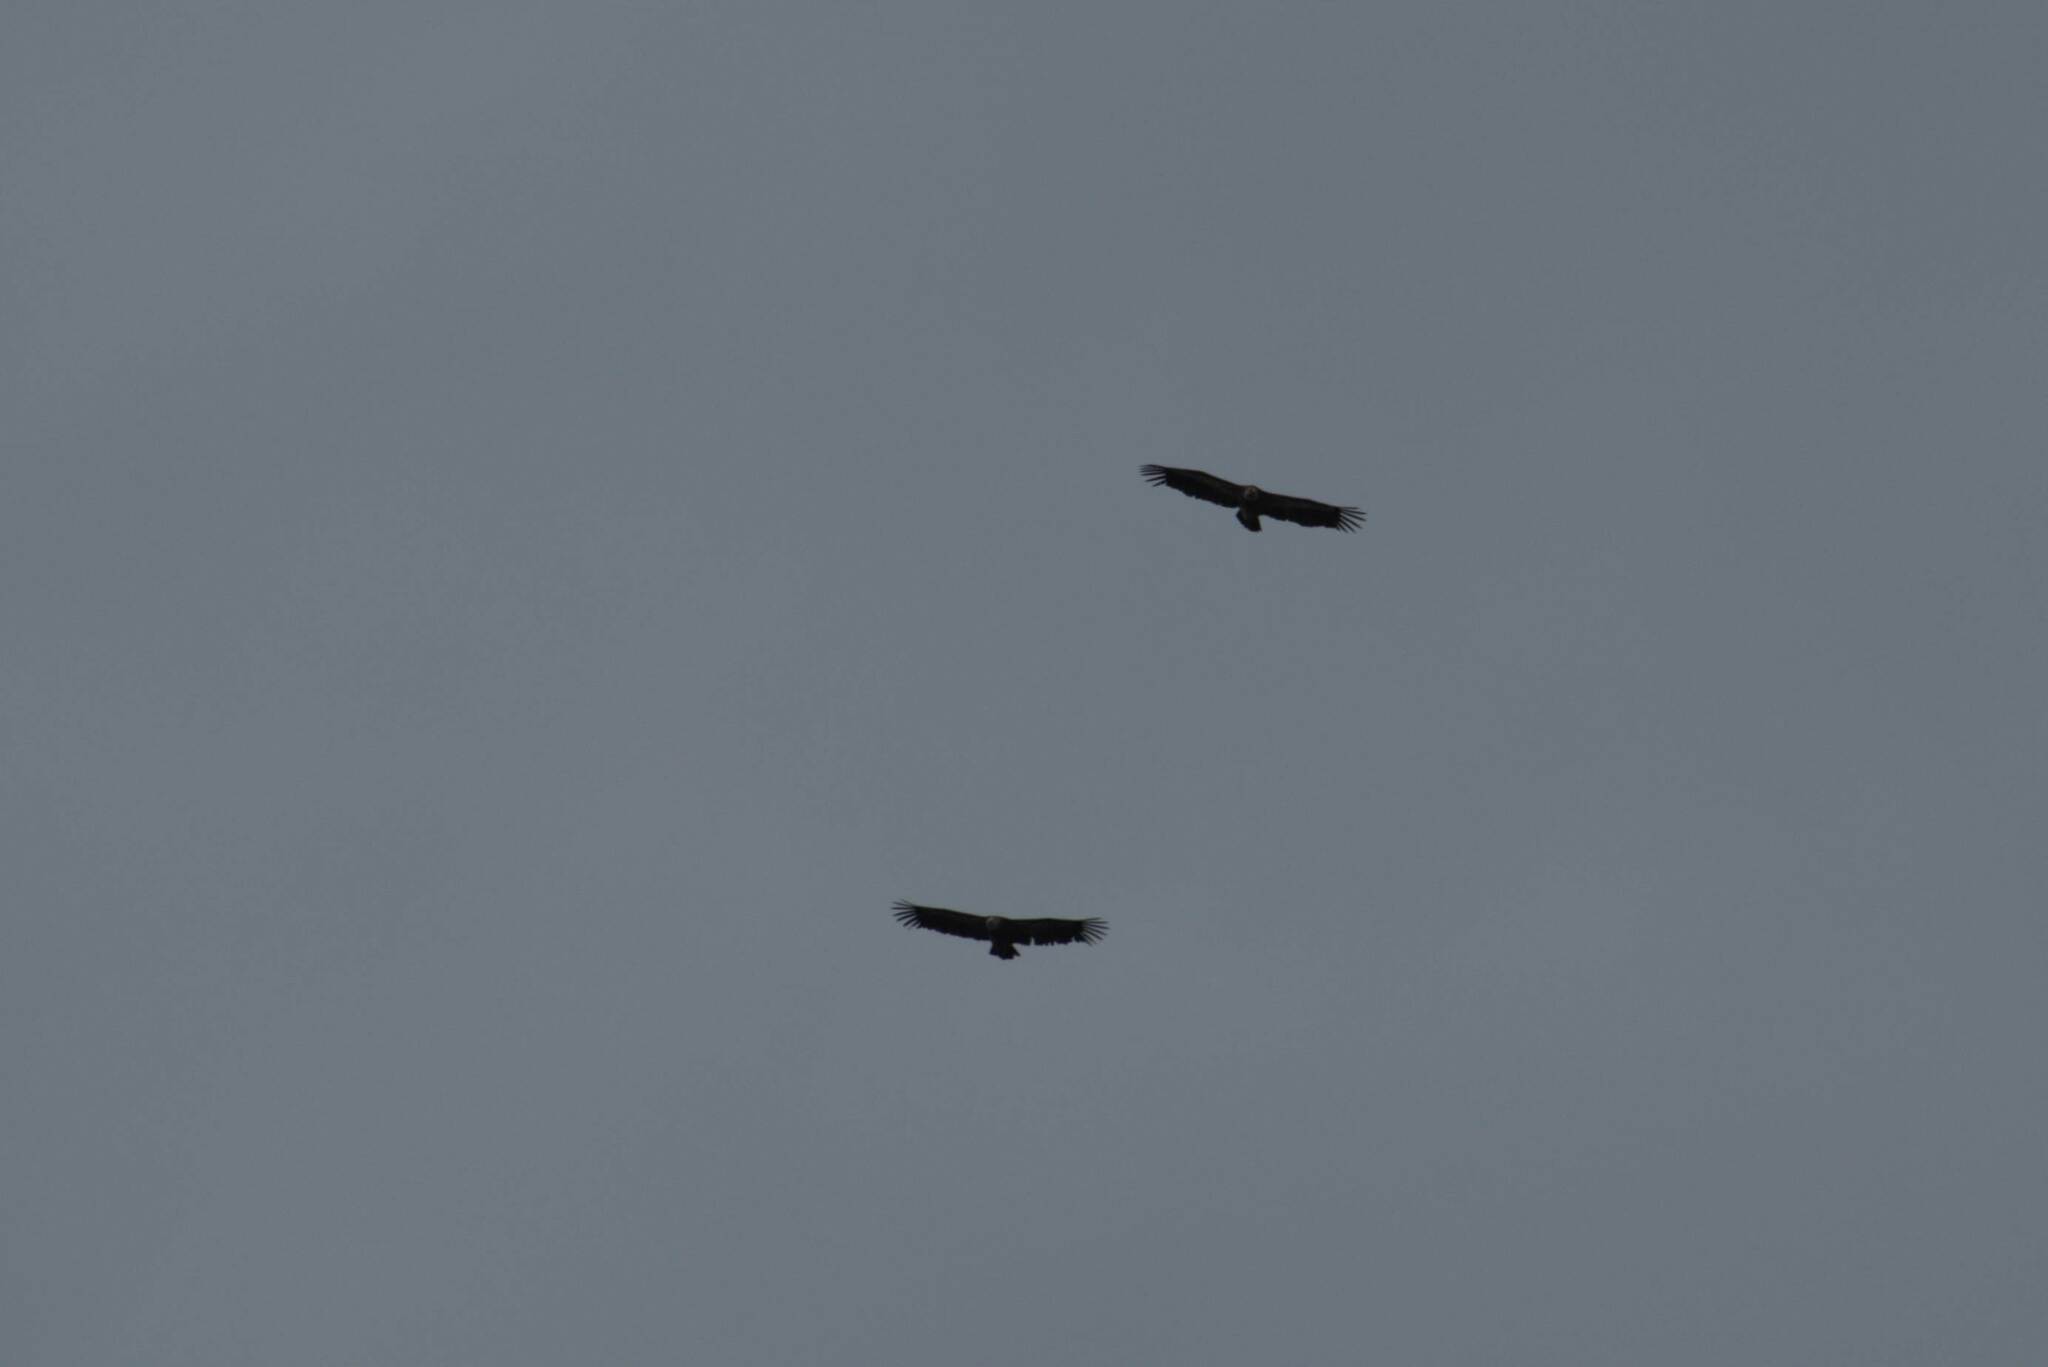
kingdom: Animalia
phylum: Chordata
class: Aves
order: Accipitriformes
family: Accipitridae
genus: Gyps
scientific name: Gyps fulvus
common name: Griffon vulture
